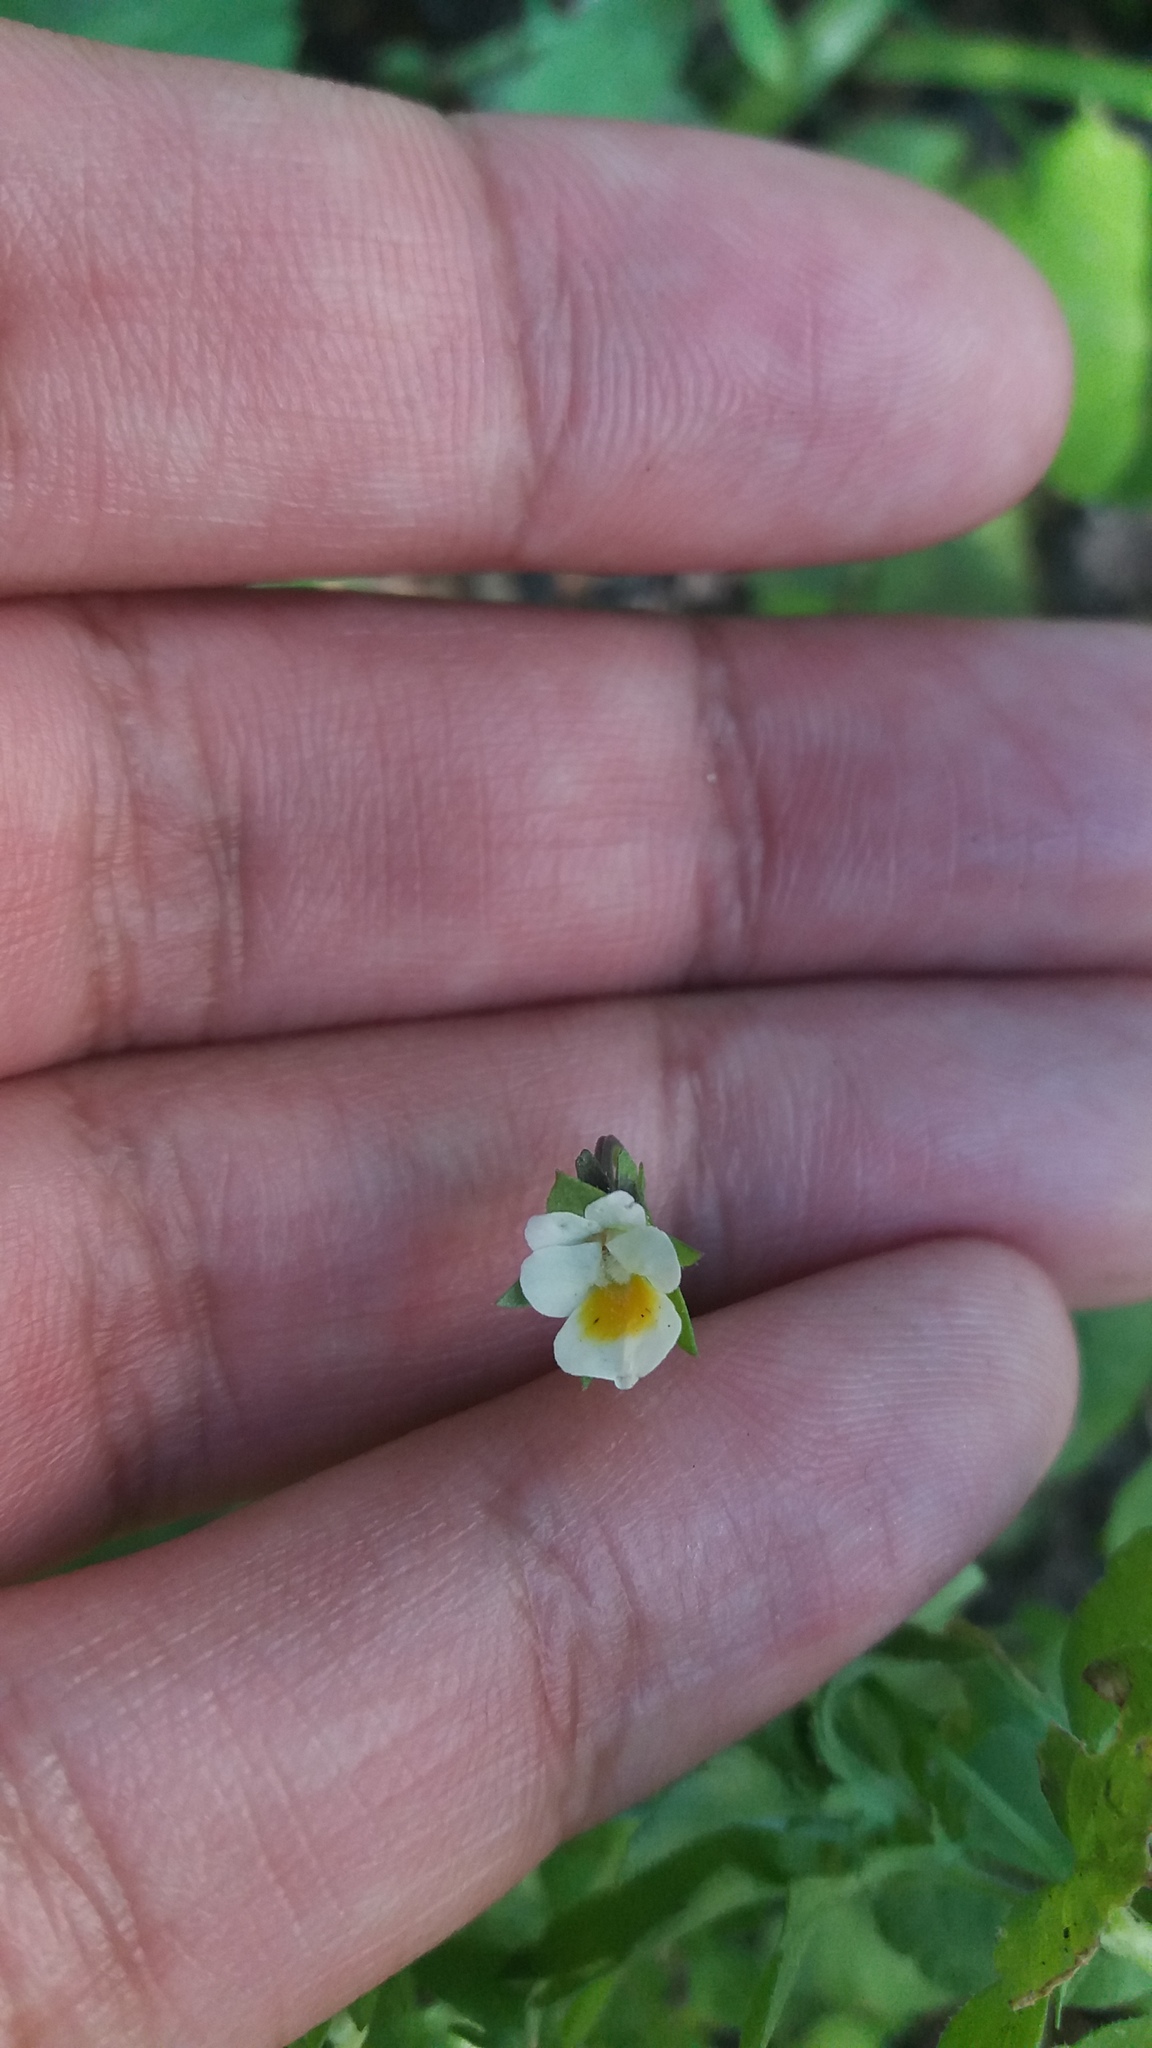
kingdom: Plantae
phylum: Tracheophyta
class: Magnoliopsida
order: Malpighiales
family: Violaceae
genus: Viola
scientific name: Viola arvensis
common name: Field pansy
